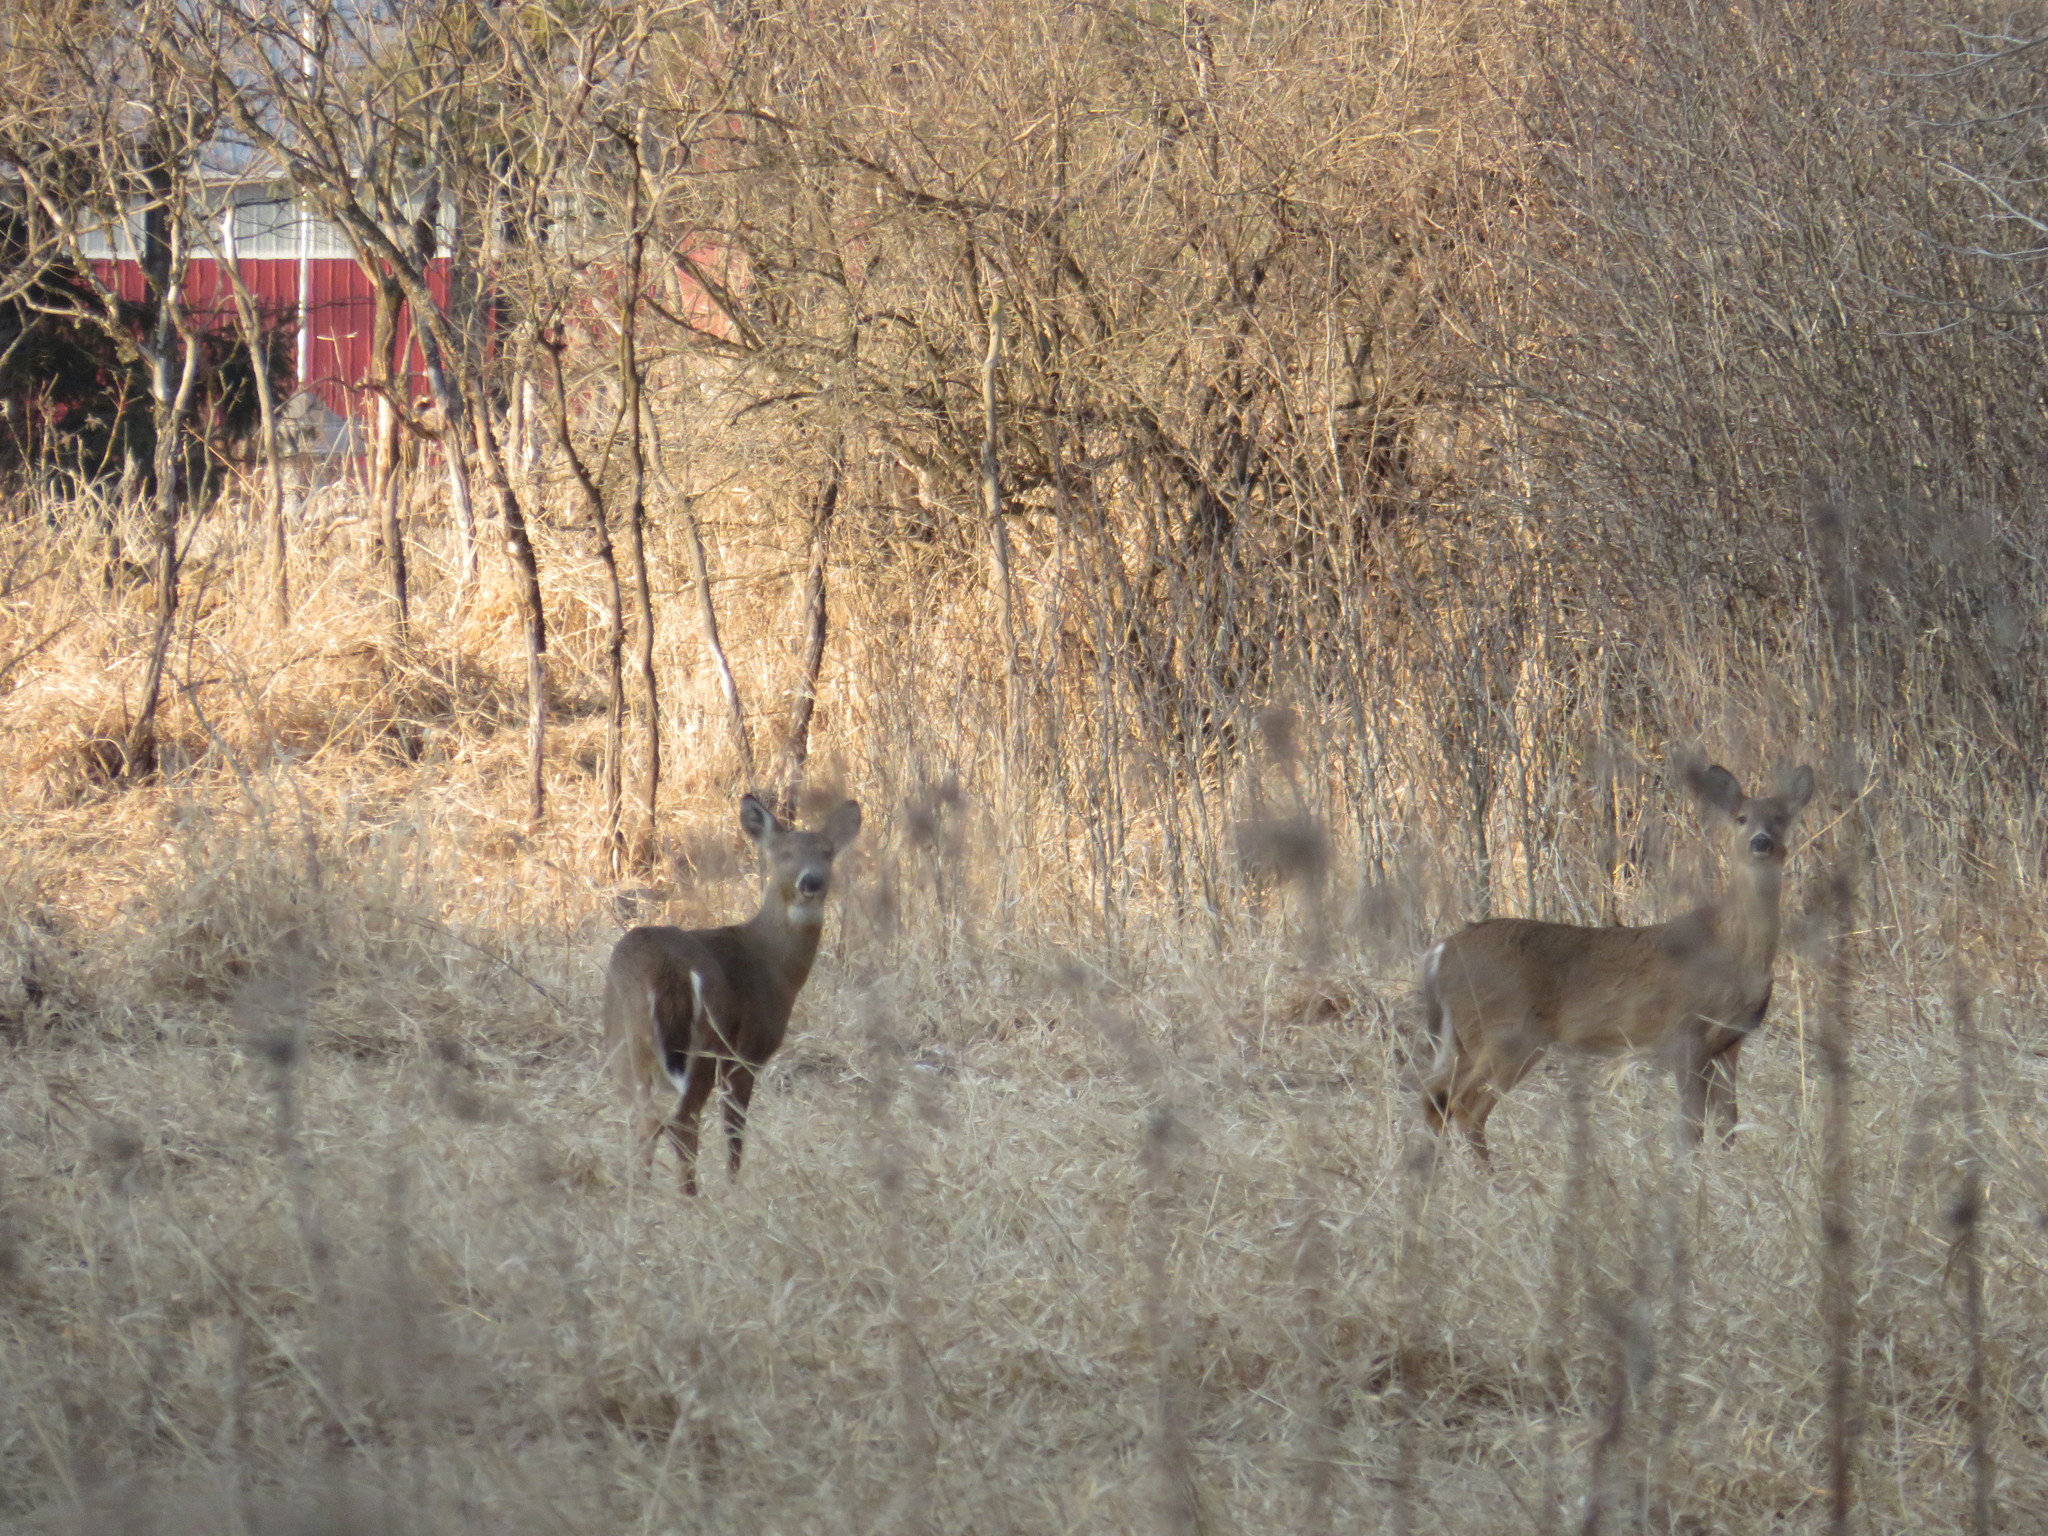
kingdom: Animalia
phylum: Chordata
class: Mammalia
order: Artiodactyla
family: Cervidae
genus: Odocoileus
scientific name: Odocoileus virginianus
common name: White-tailed deer
